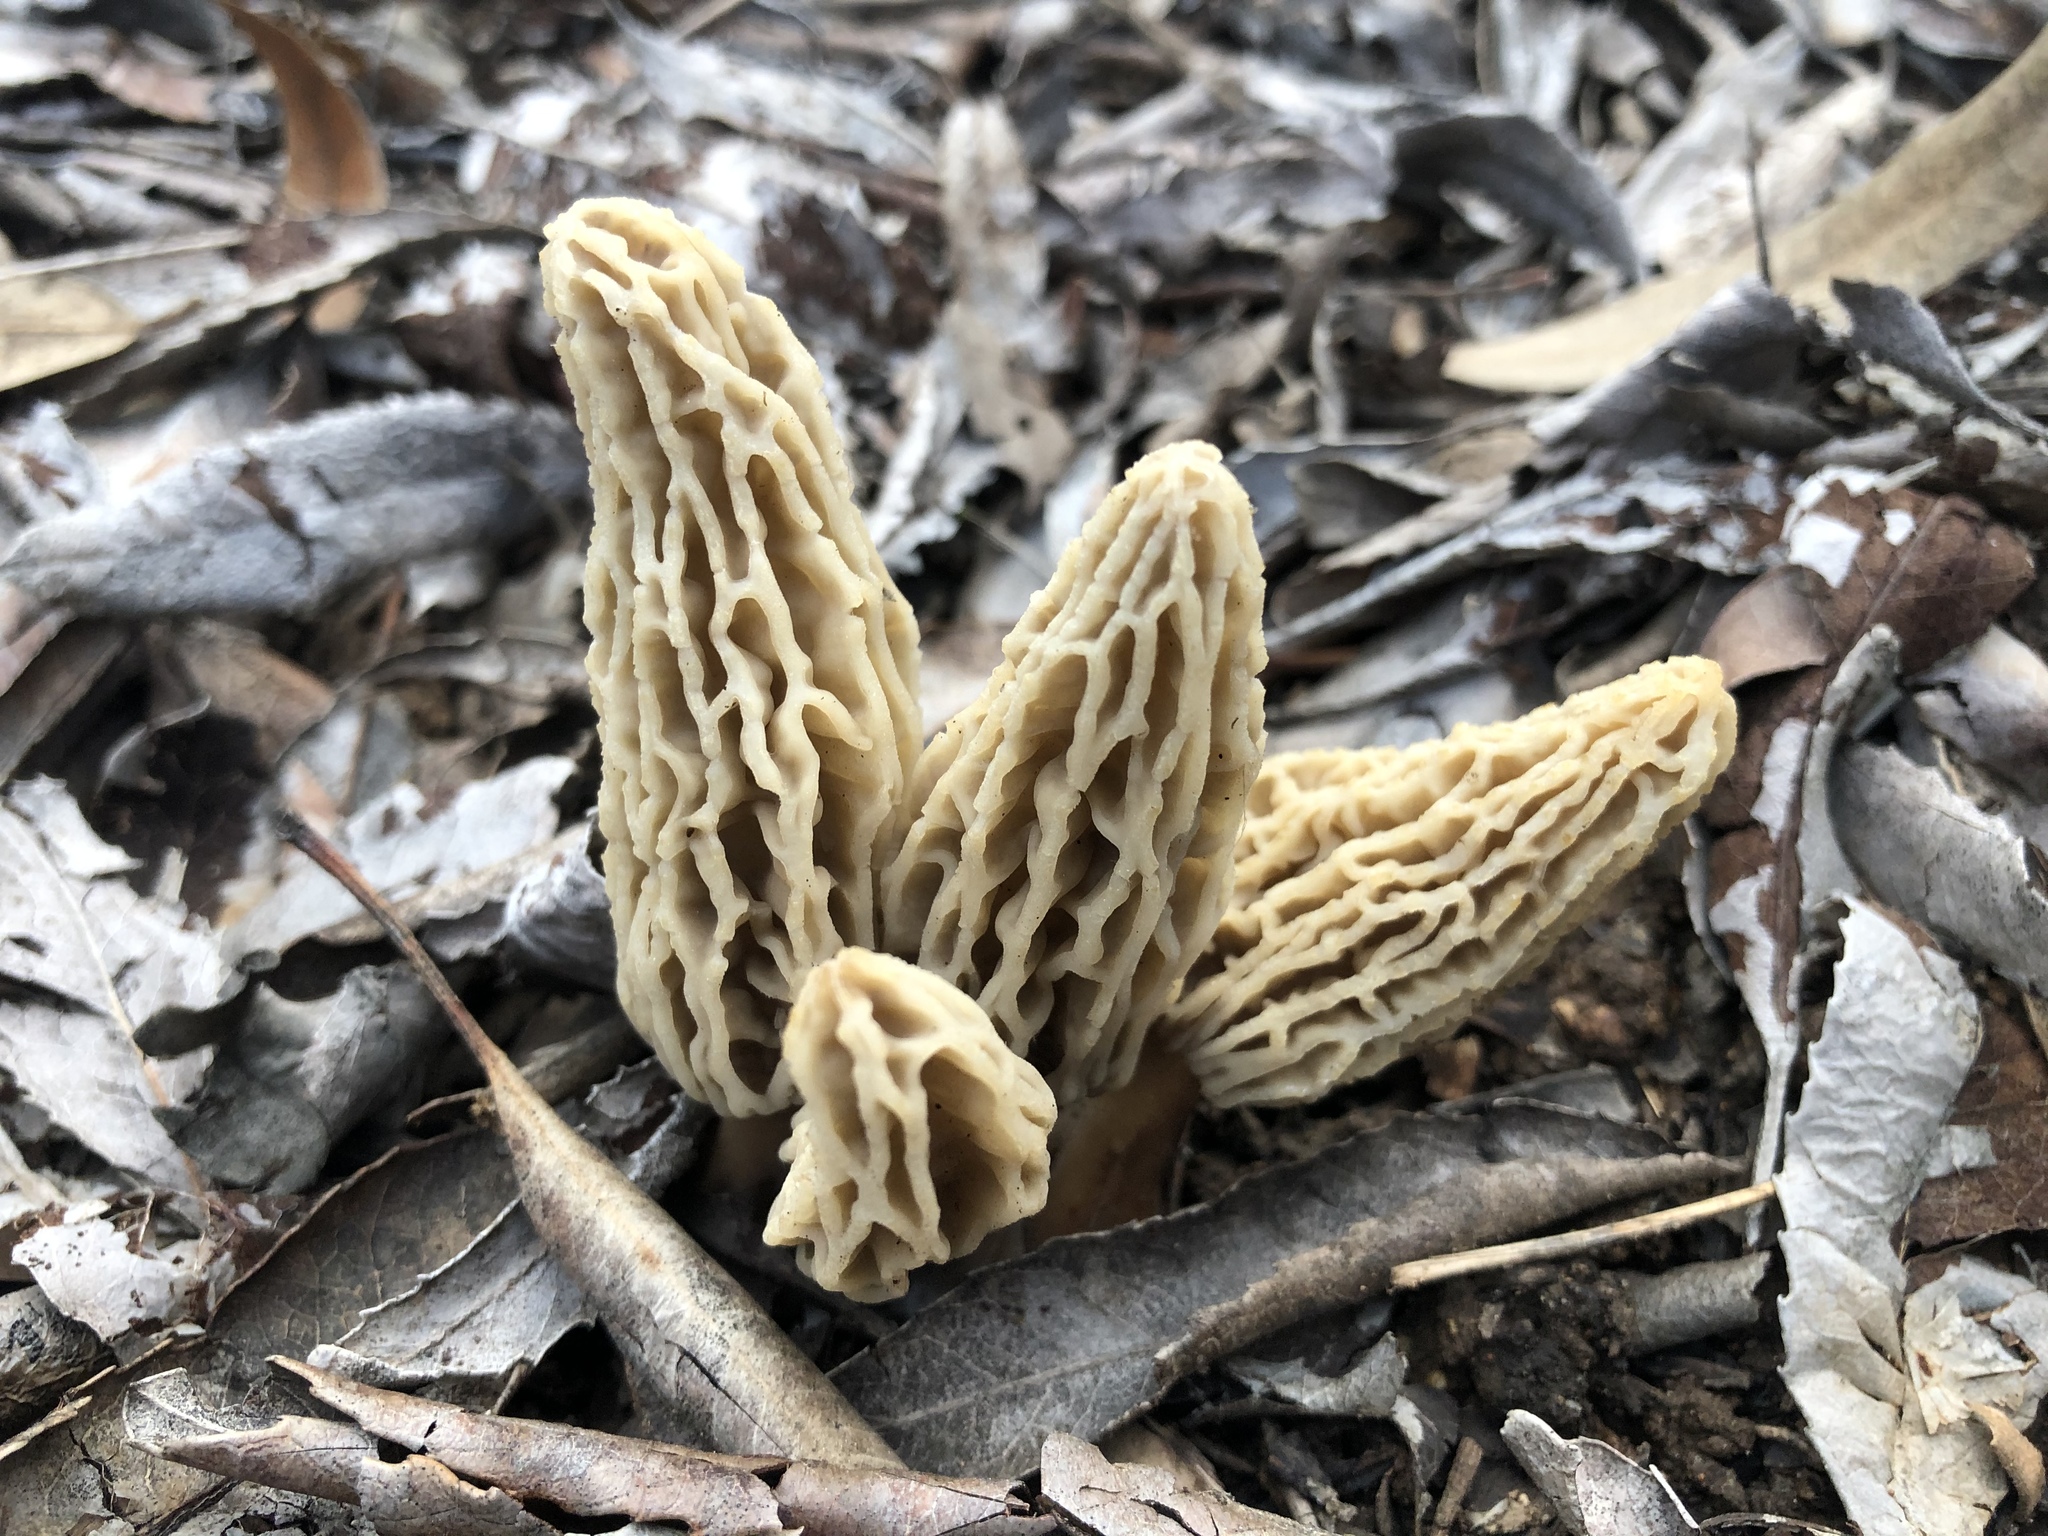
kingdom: Fungi
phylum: Ascomycota
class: Pezizomycetes
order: Pezizales
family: Morchellaceae
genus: Morchella
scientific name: Morchella rufobrunnea
